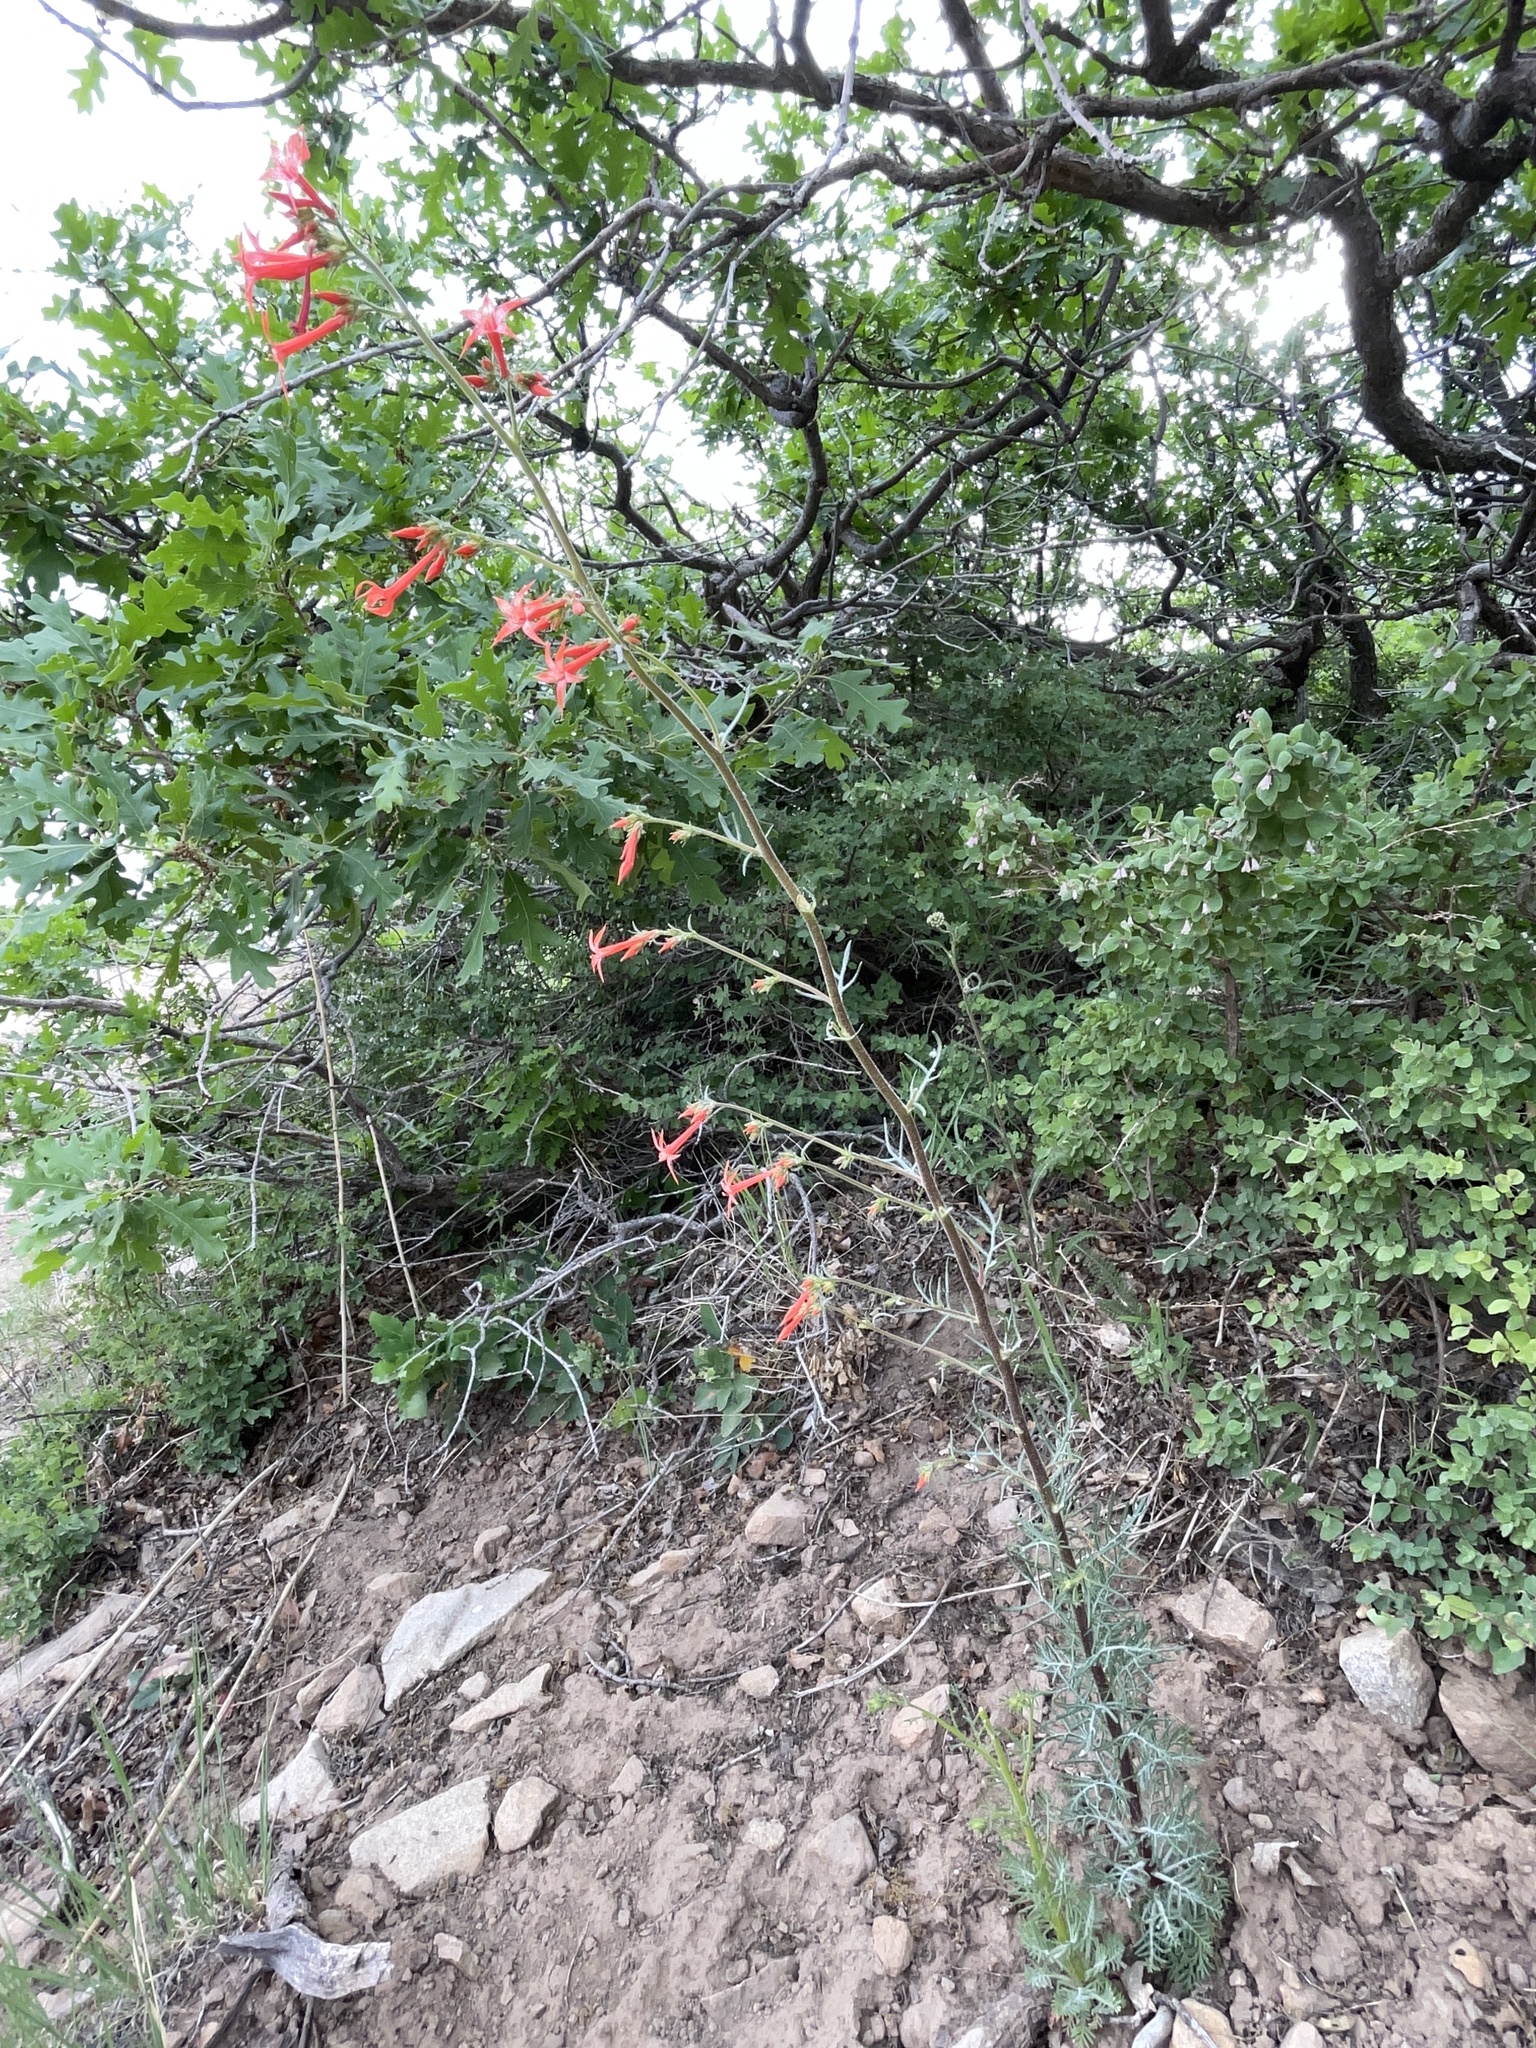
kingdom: Plantae
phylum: Tracheophyta
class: Magnoliopsida
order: Ericales
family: Polemoniaceae
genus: Ipomopsis
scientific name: Ipomopsis aggregata
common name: Scarlet gilia
